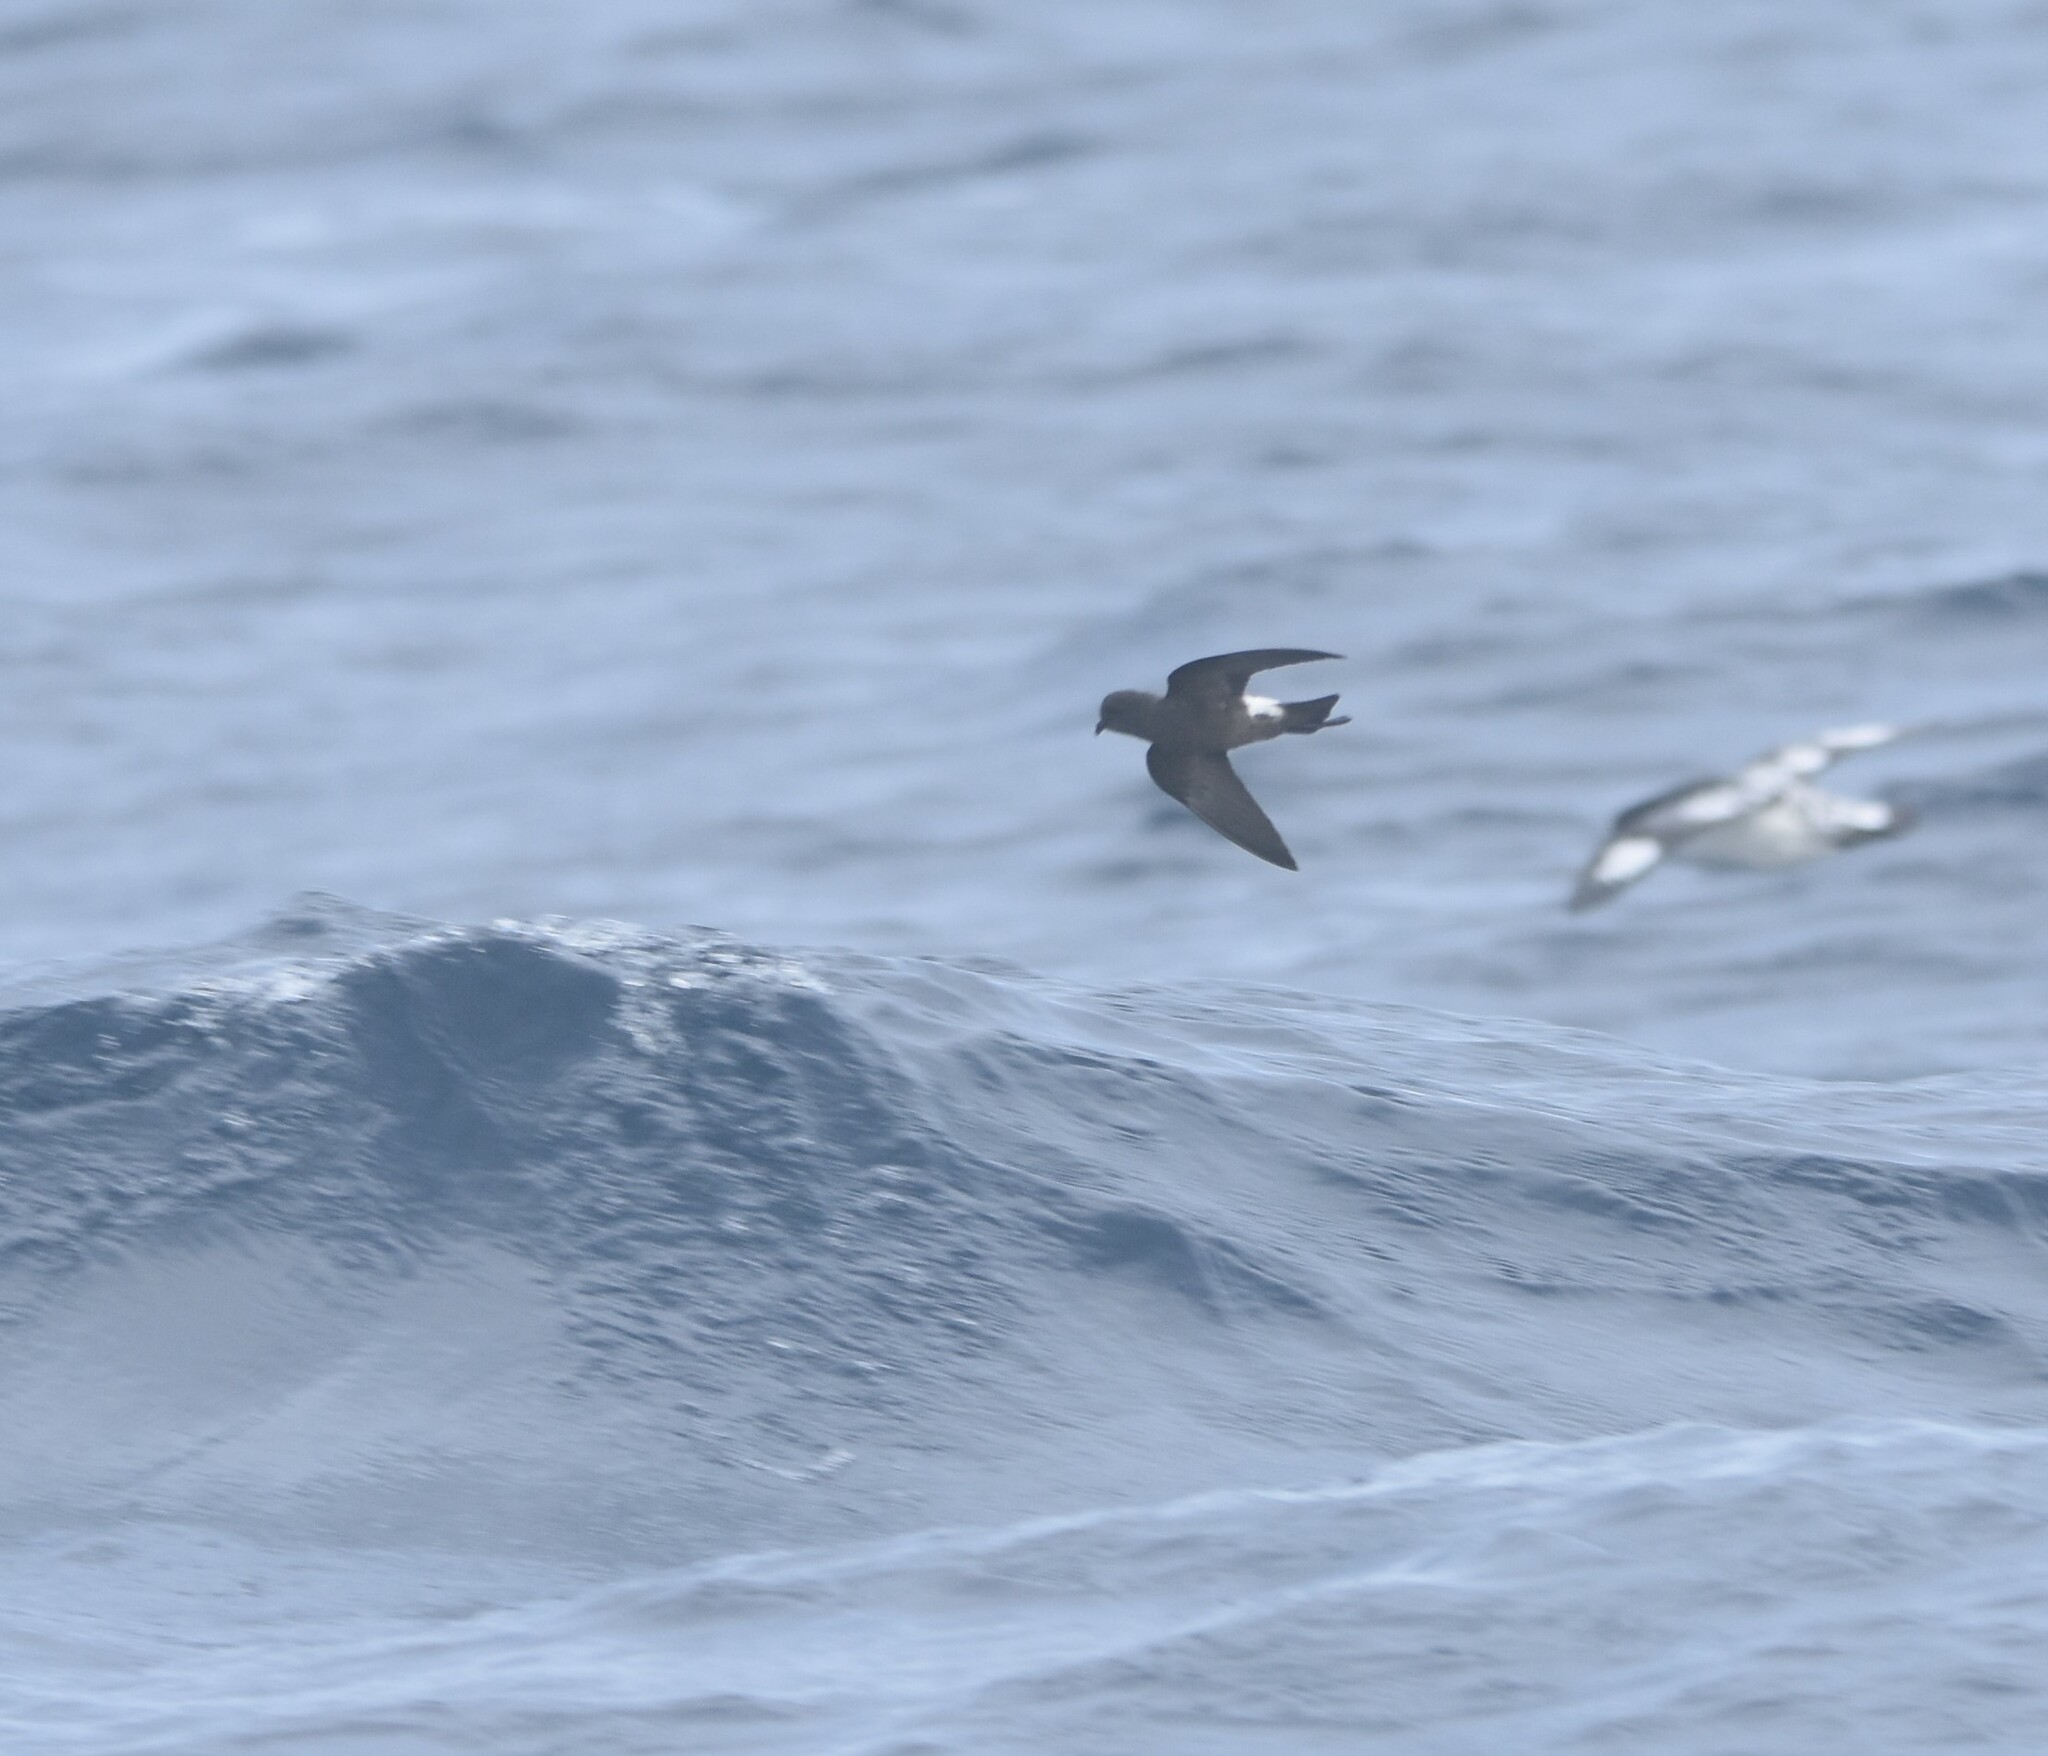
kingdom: Animalia
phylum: Chordata
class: Aves
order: Procellariiformes
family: Hydrobatidae
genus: Oceanites
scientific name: Oceanites oceanicus
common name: Wilson's storm petrel
